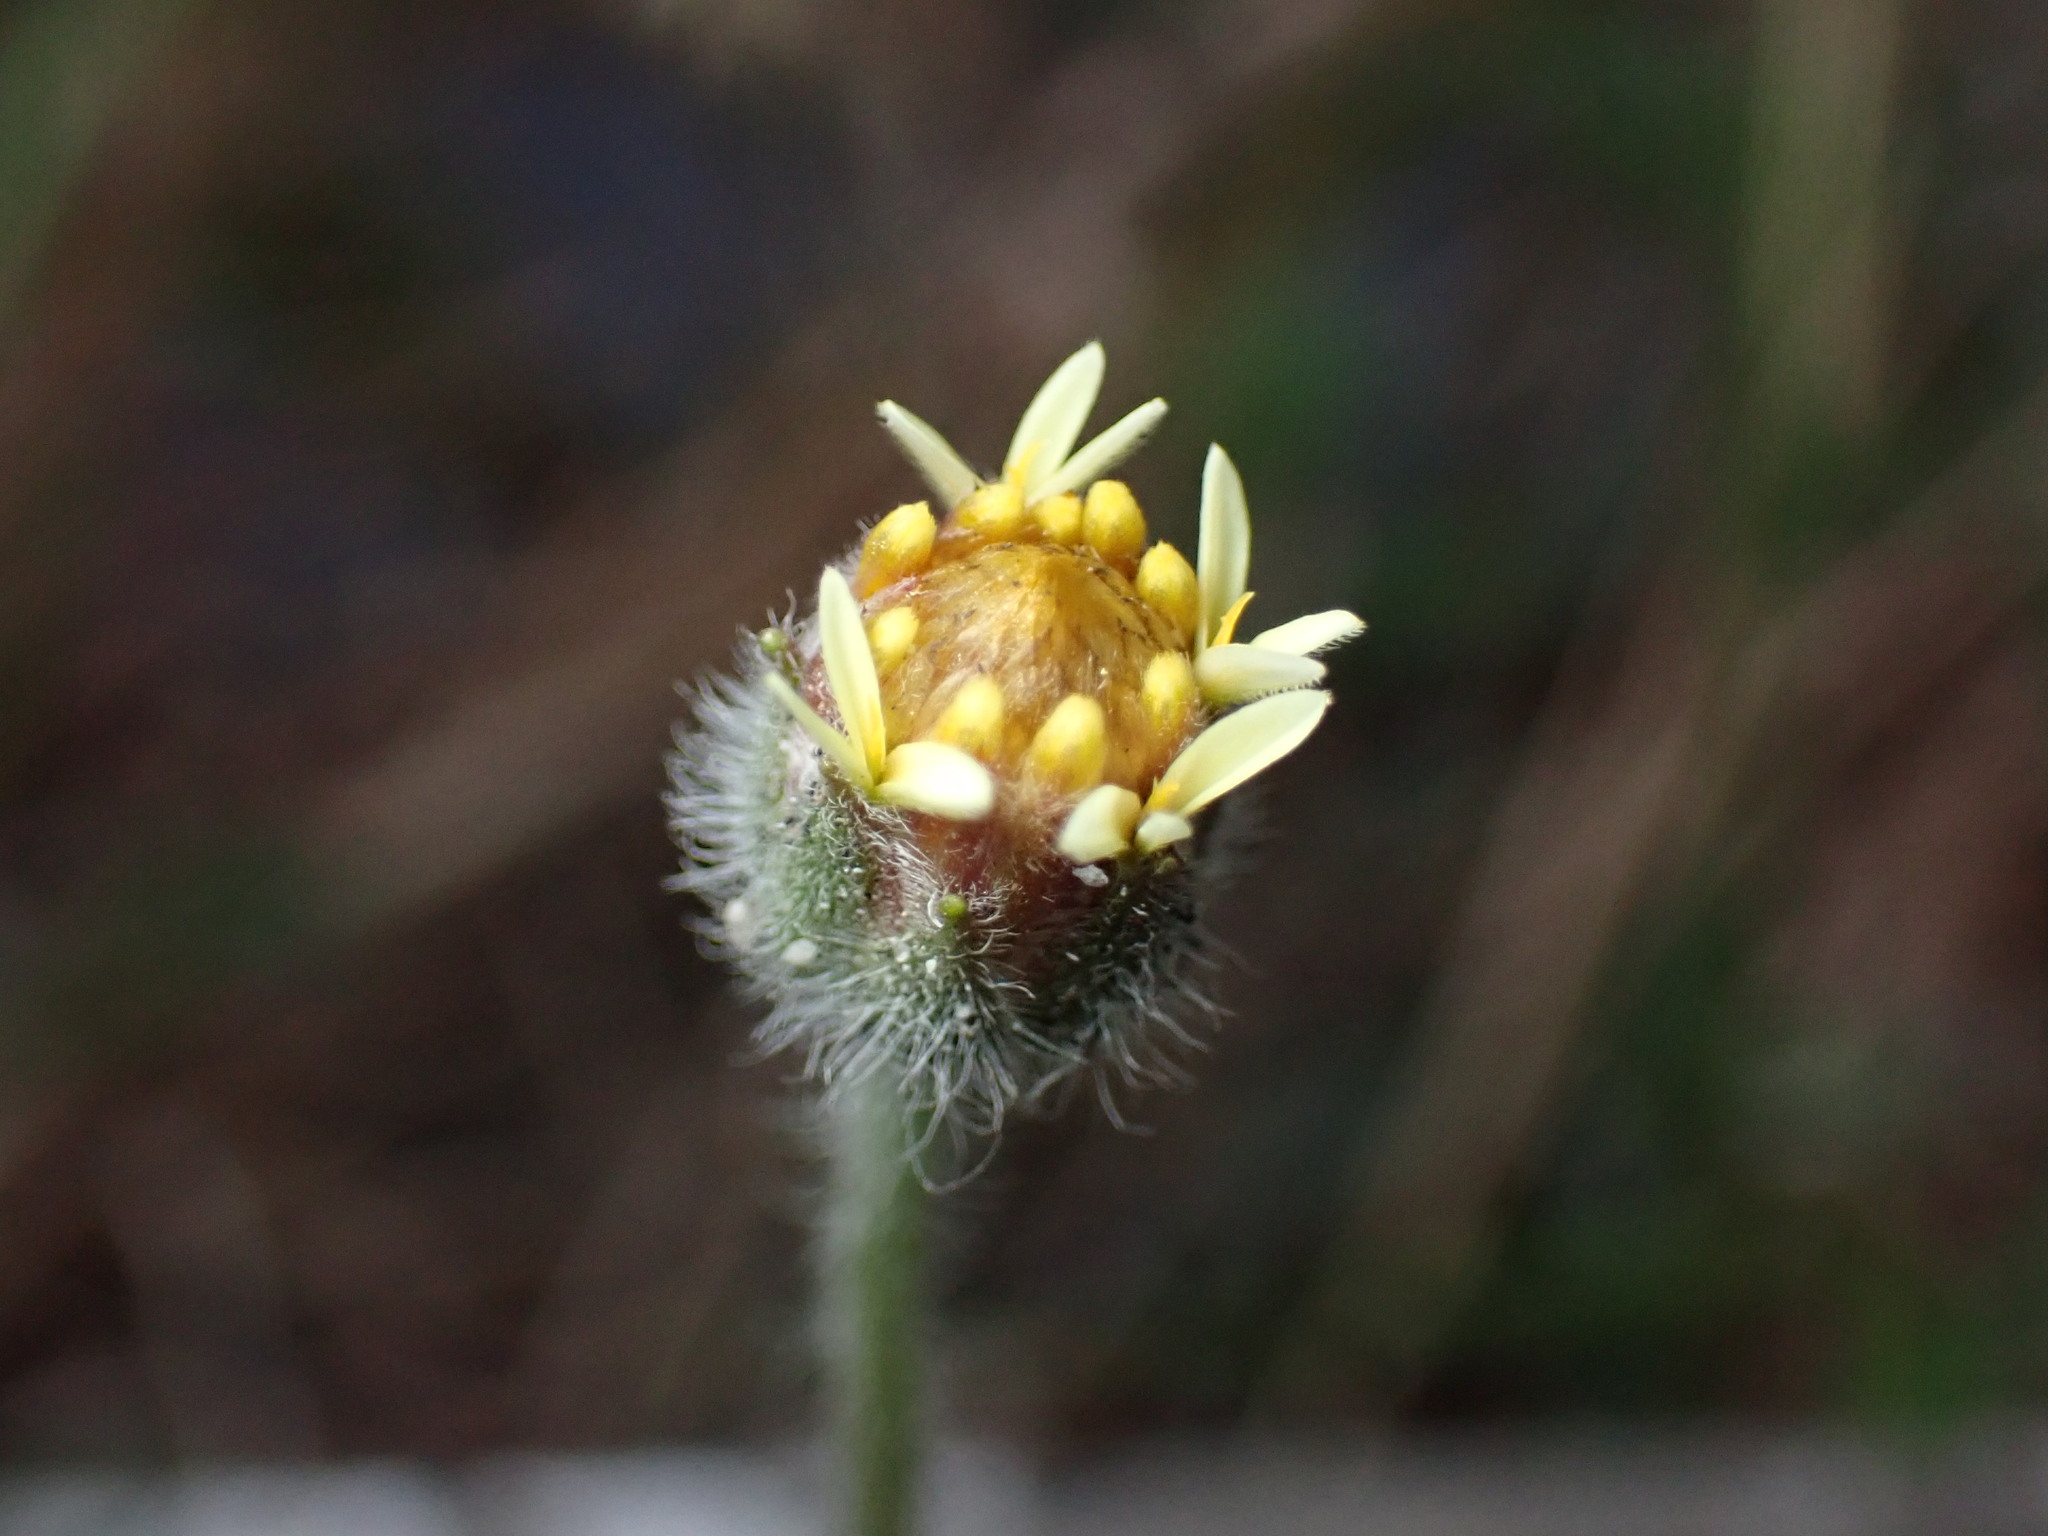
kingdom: Plantae
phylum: Tracheophyta
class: Magnoliopsida
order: Asterales
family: Asteraceae
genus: Tridax
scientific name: Tridax procumbens
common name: Coatbuttons
